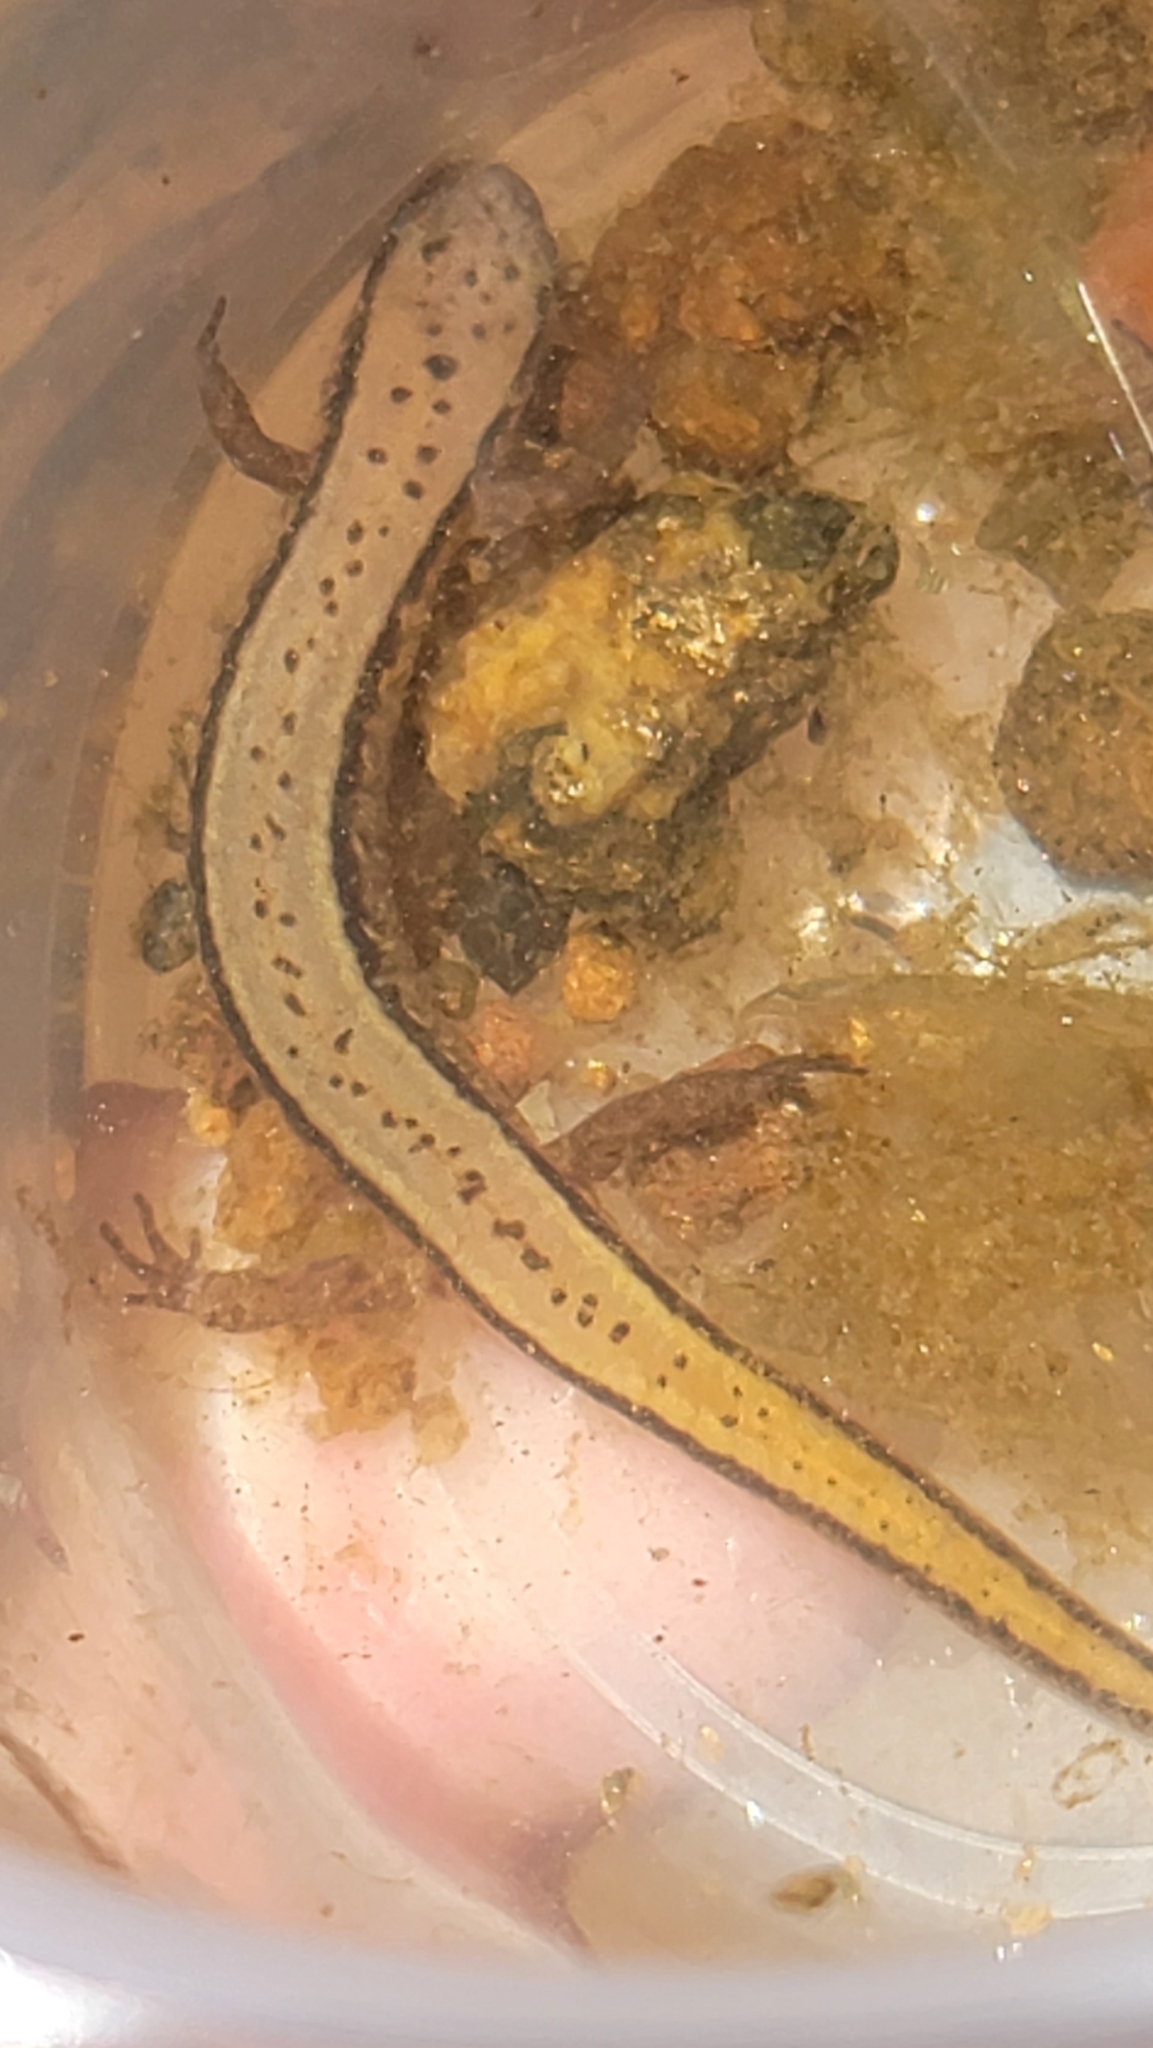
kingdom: Animalia
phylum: Chordata
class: Amphibia
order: Caudata
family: Plethodontidae
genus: Eurycea
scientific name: Eurycea cirrigera
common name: Southern two-lined salamander
